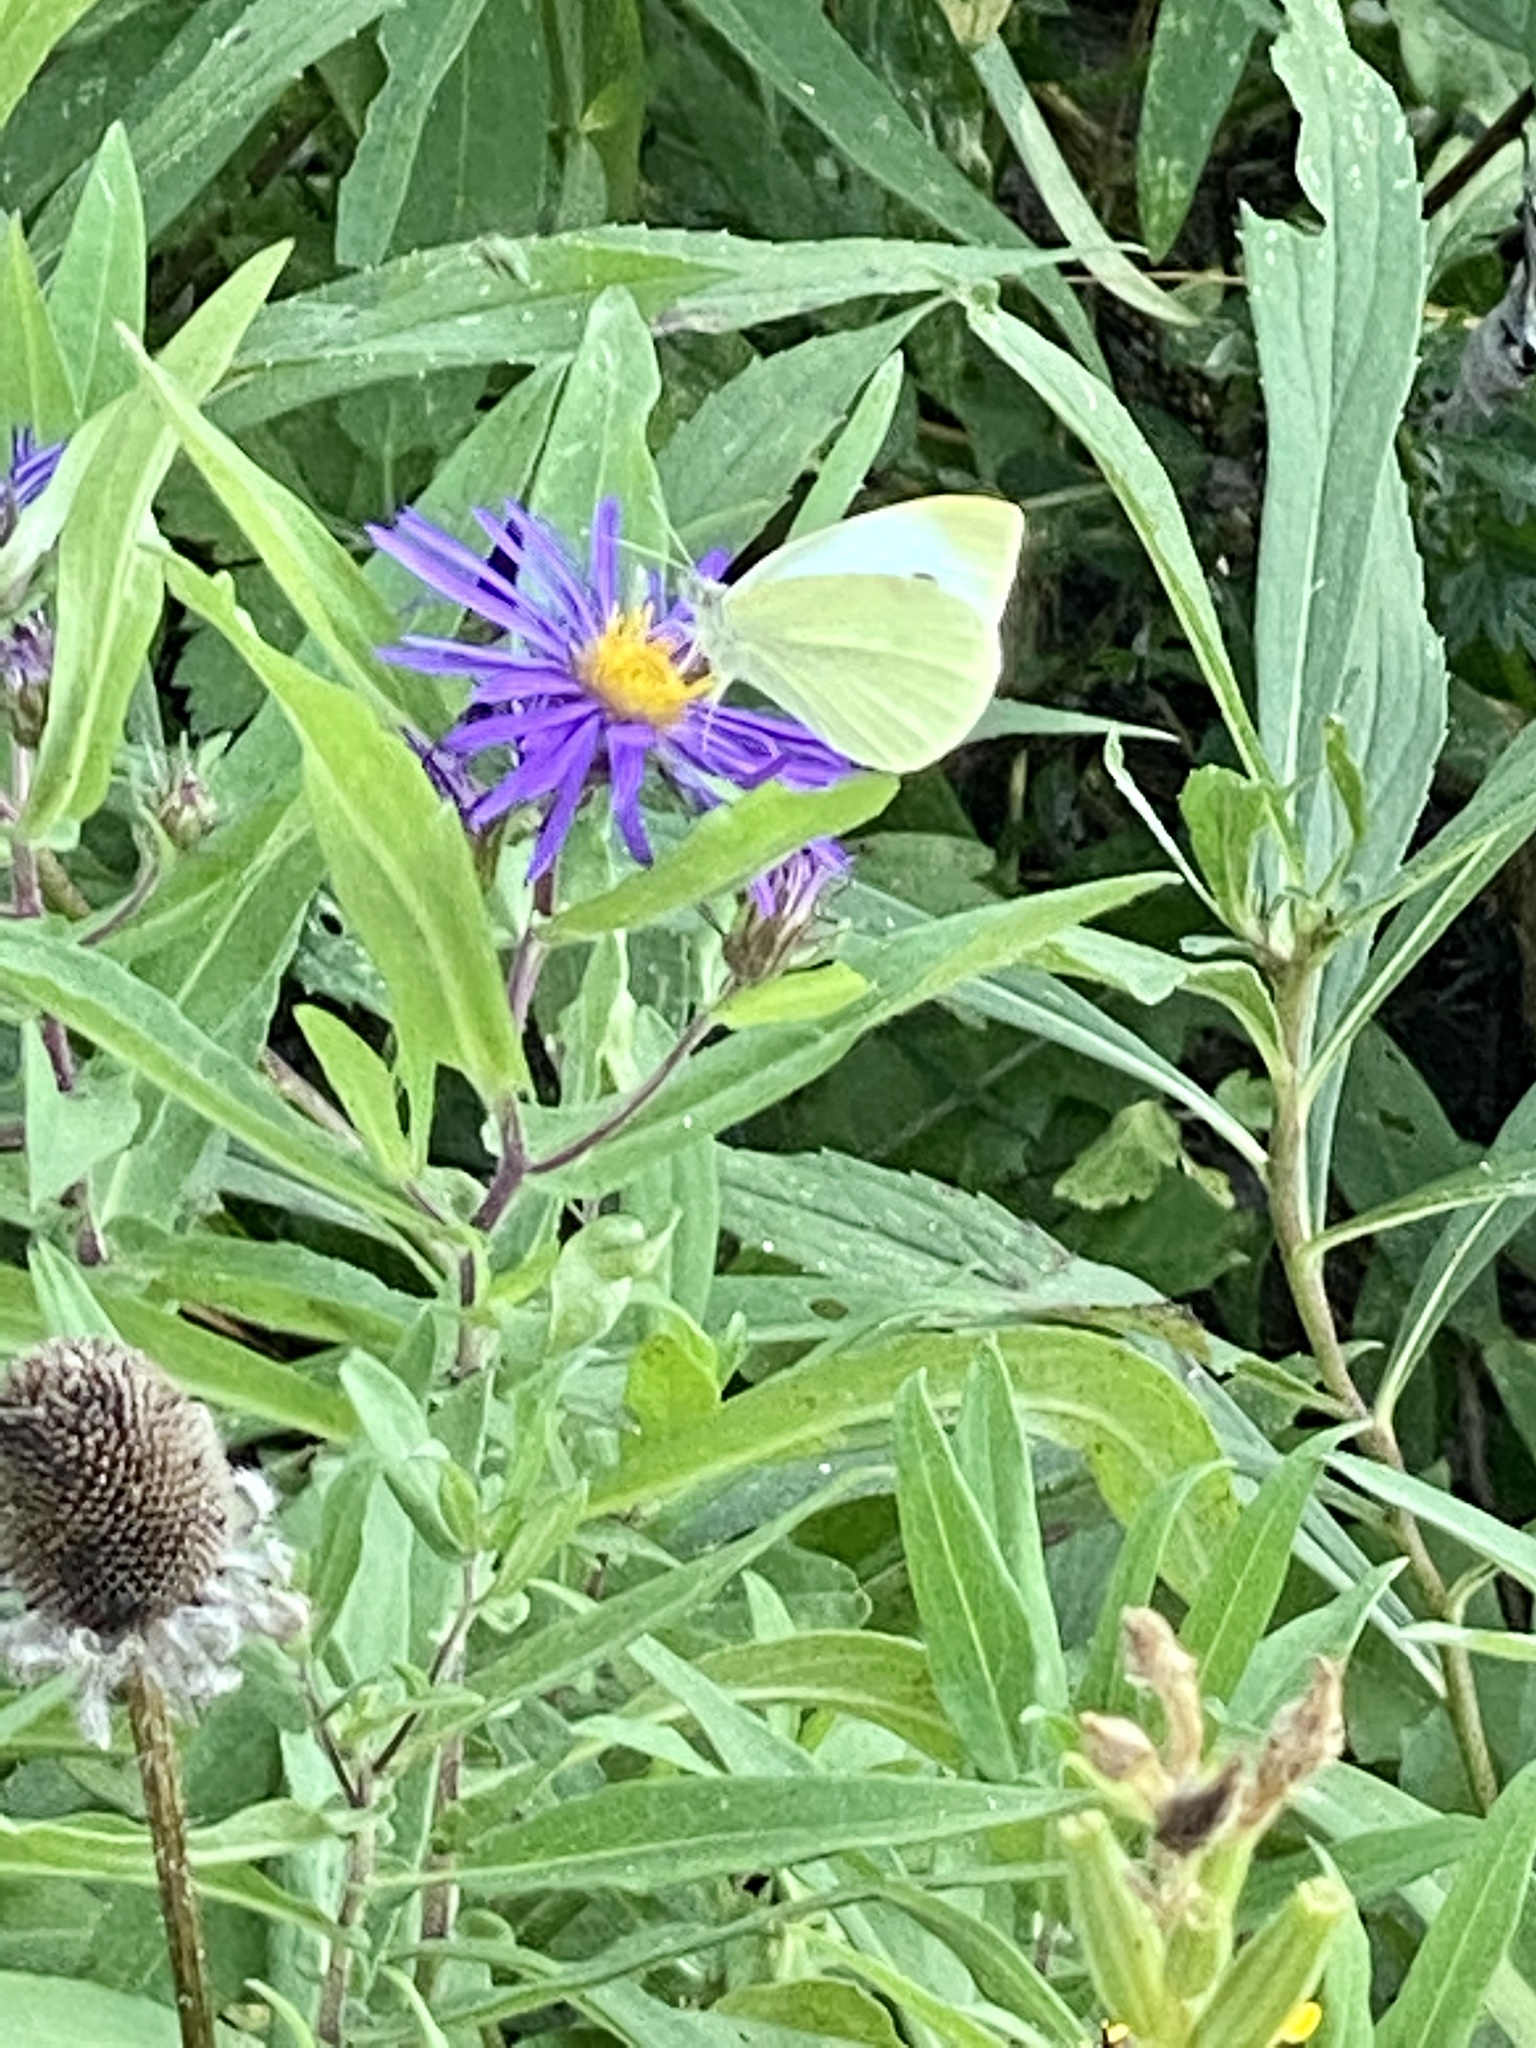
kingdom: Animalia
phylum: Arthropoda
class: Insecta
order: Lepidoptera
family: Pieridae
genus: Pieris
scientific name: Pieris rapae
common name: Small white
